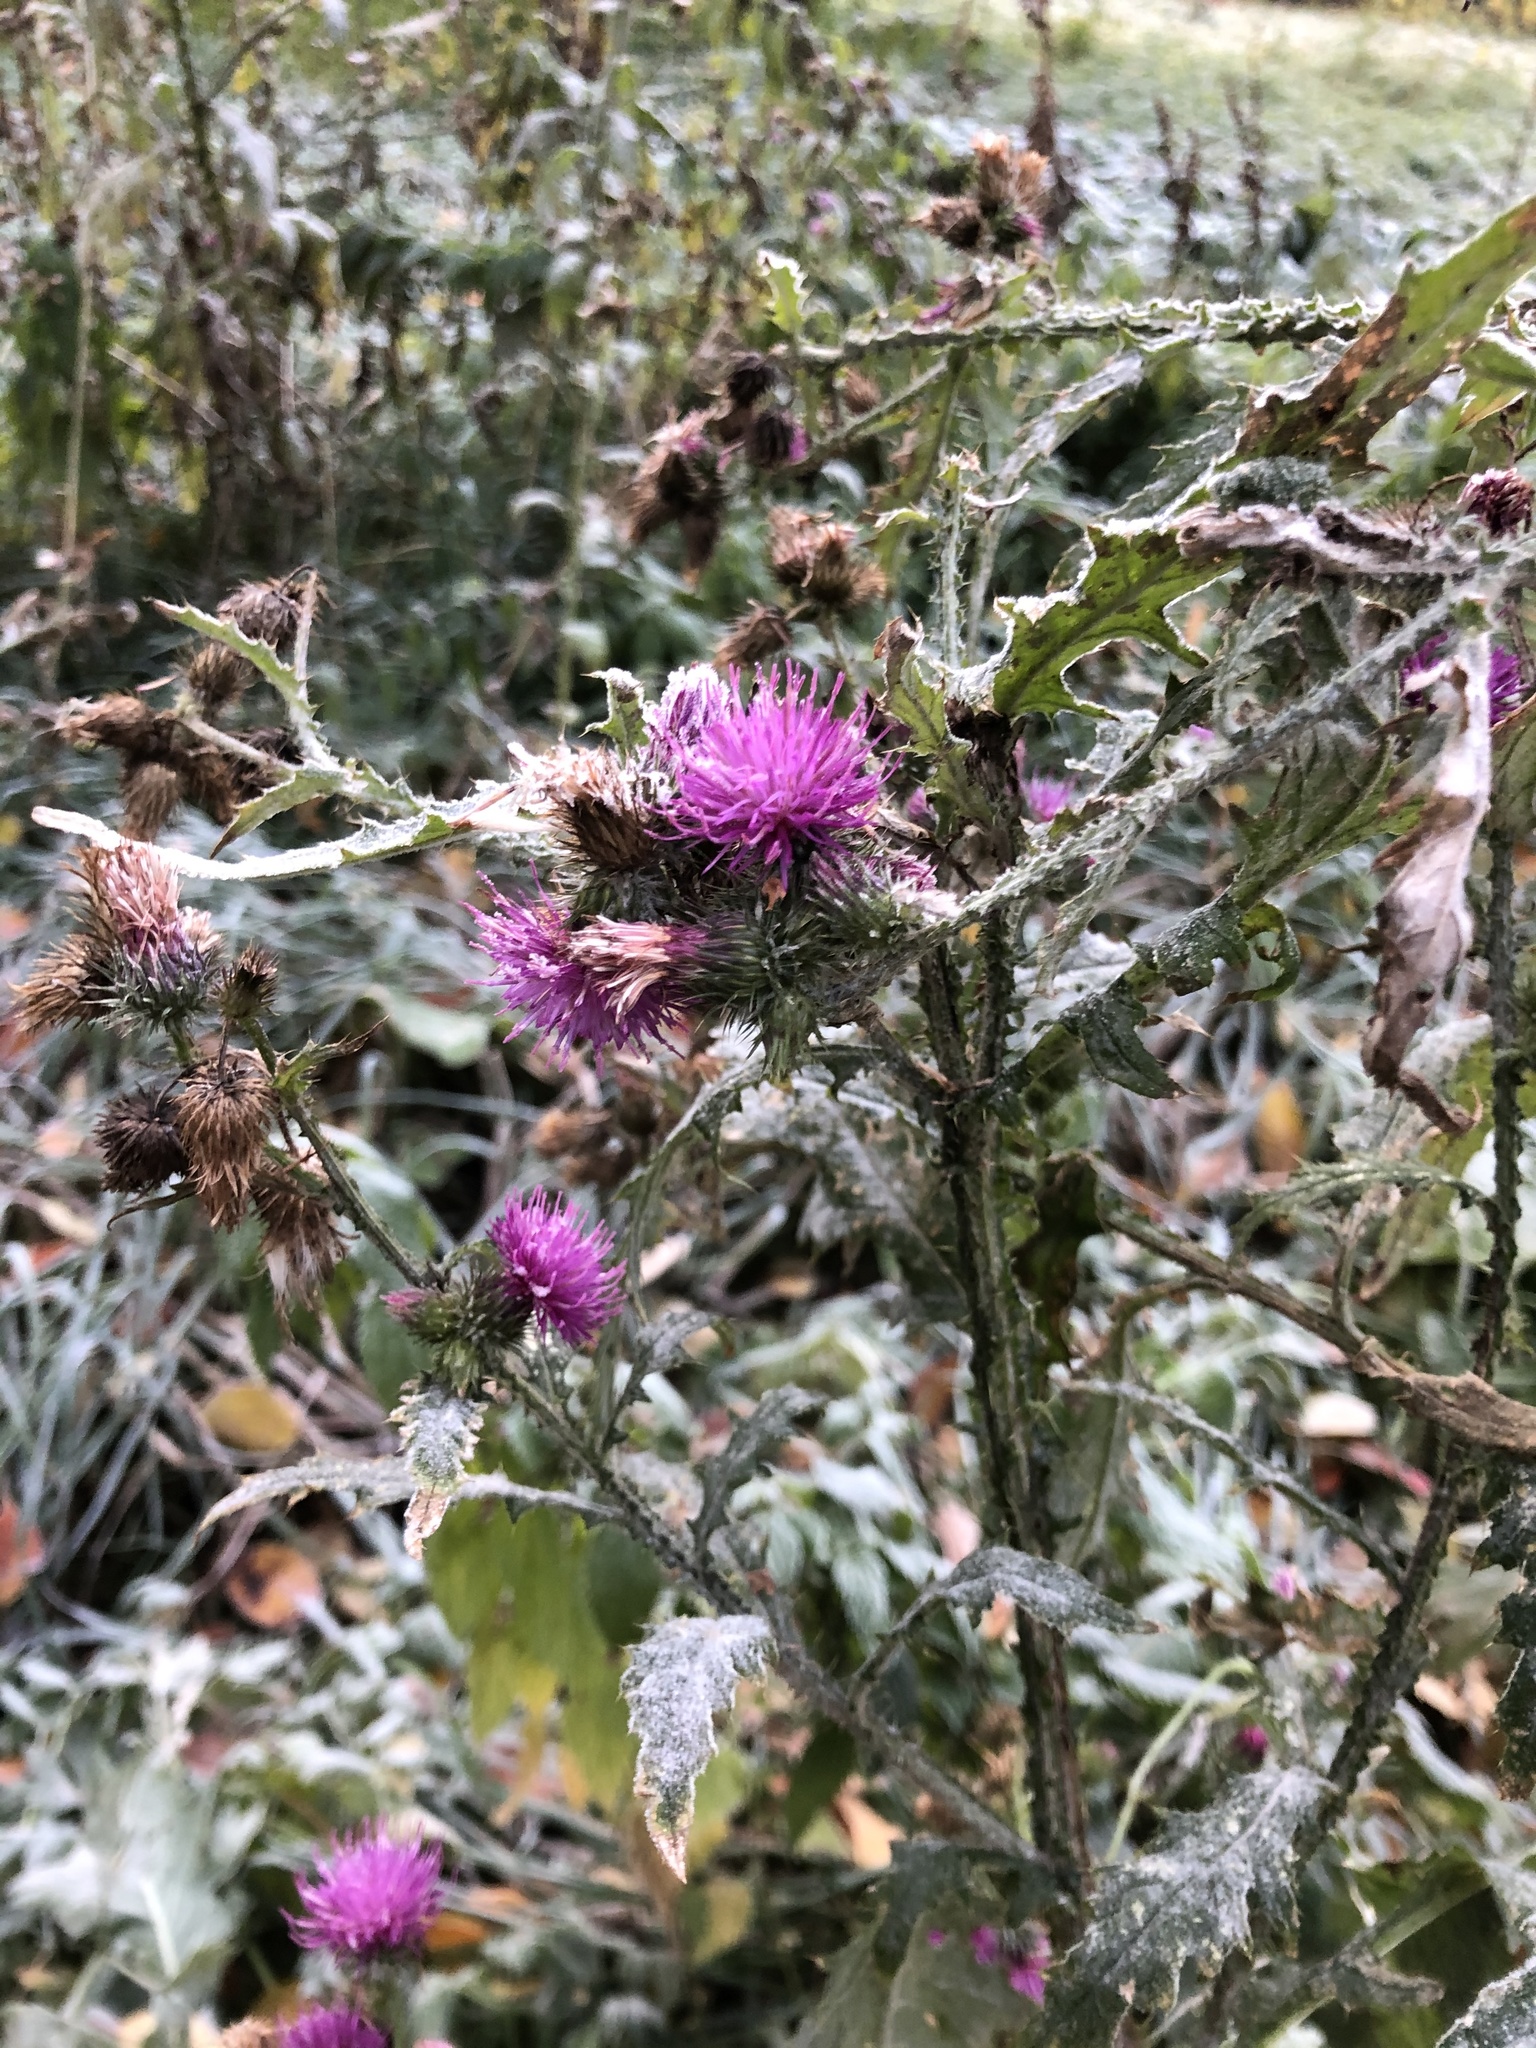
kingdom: Plantae
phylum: Tracheophyta
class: Magnoliopsida
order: Asterales
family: Asteraceae
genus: Carduus
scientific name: Carduus crispus
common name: Welted thistle
